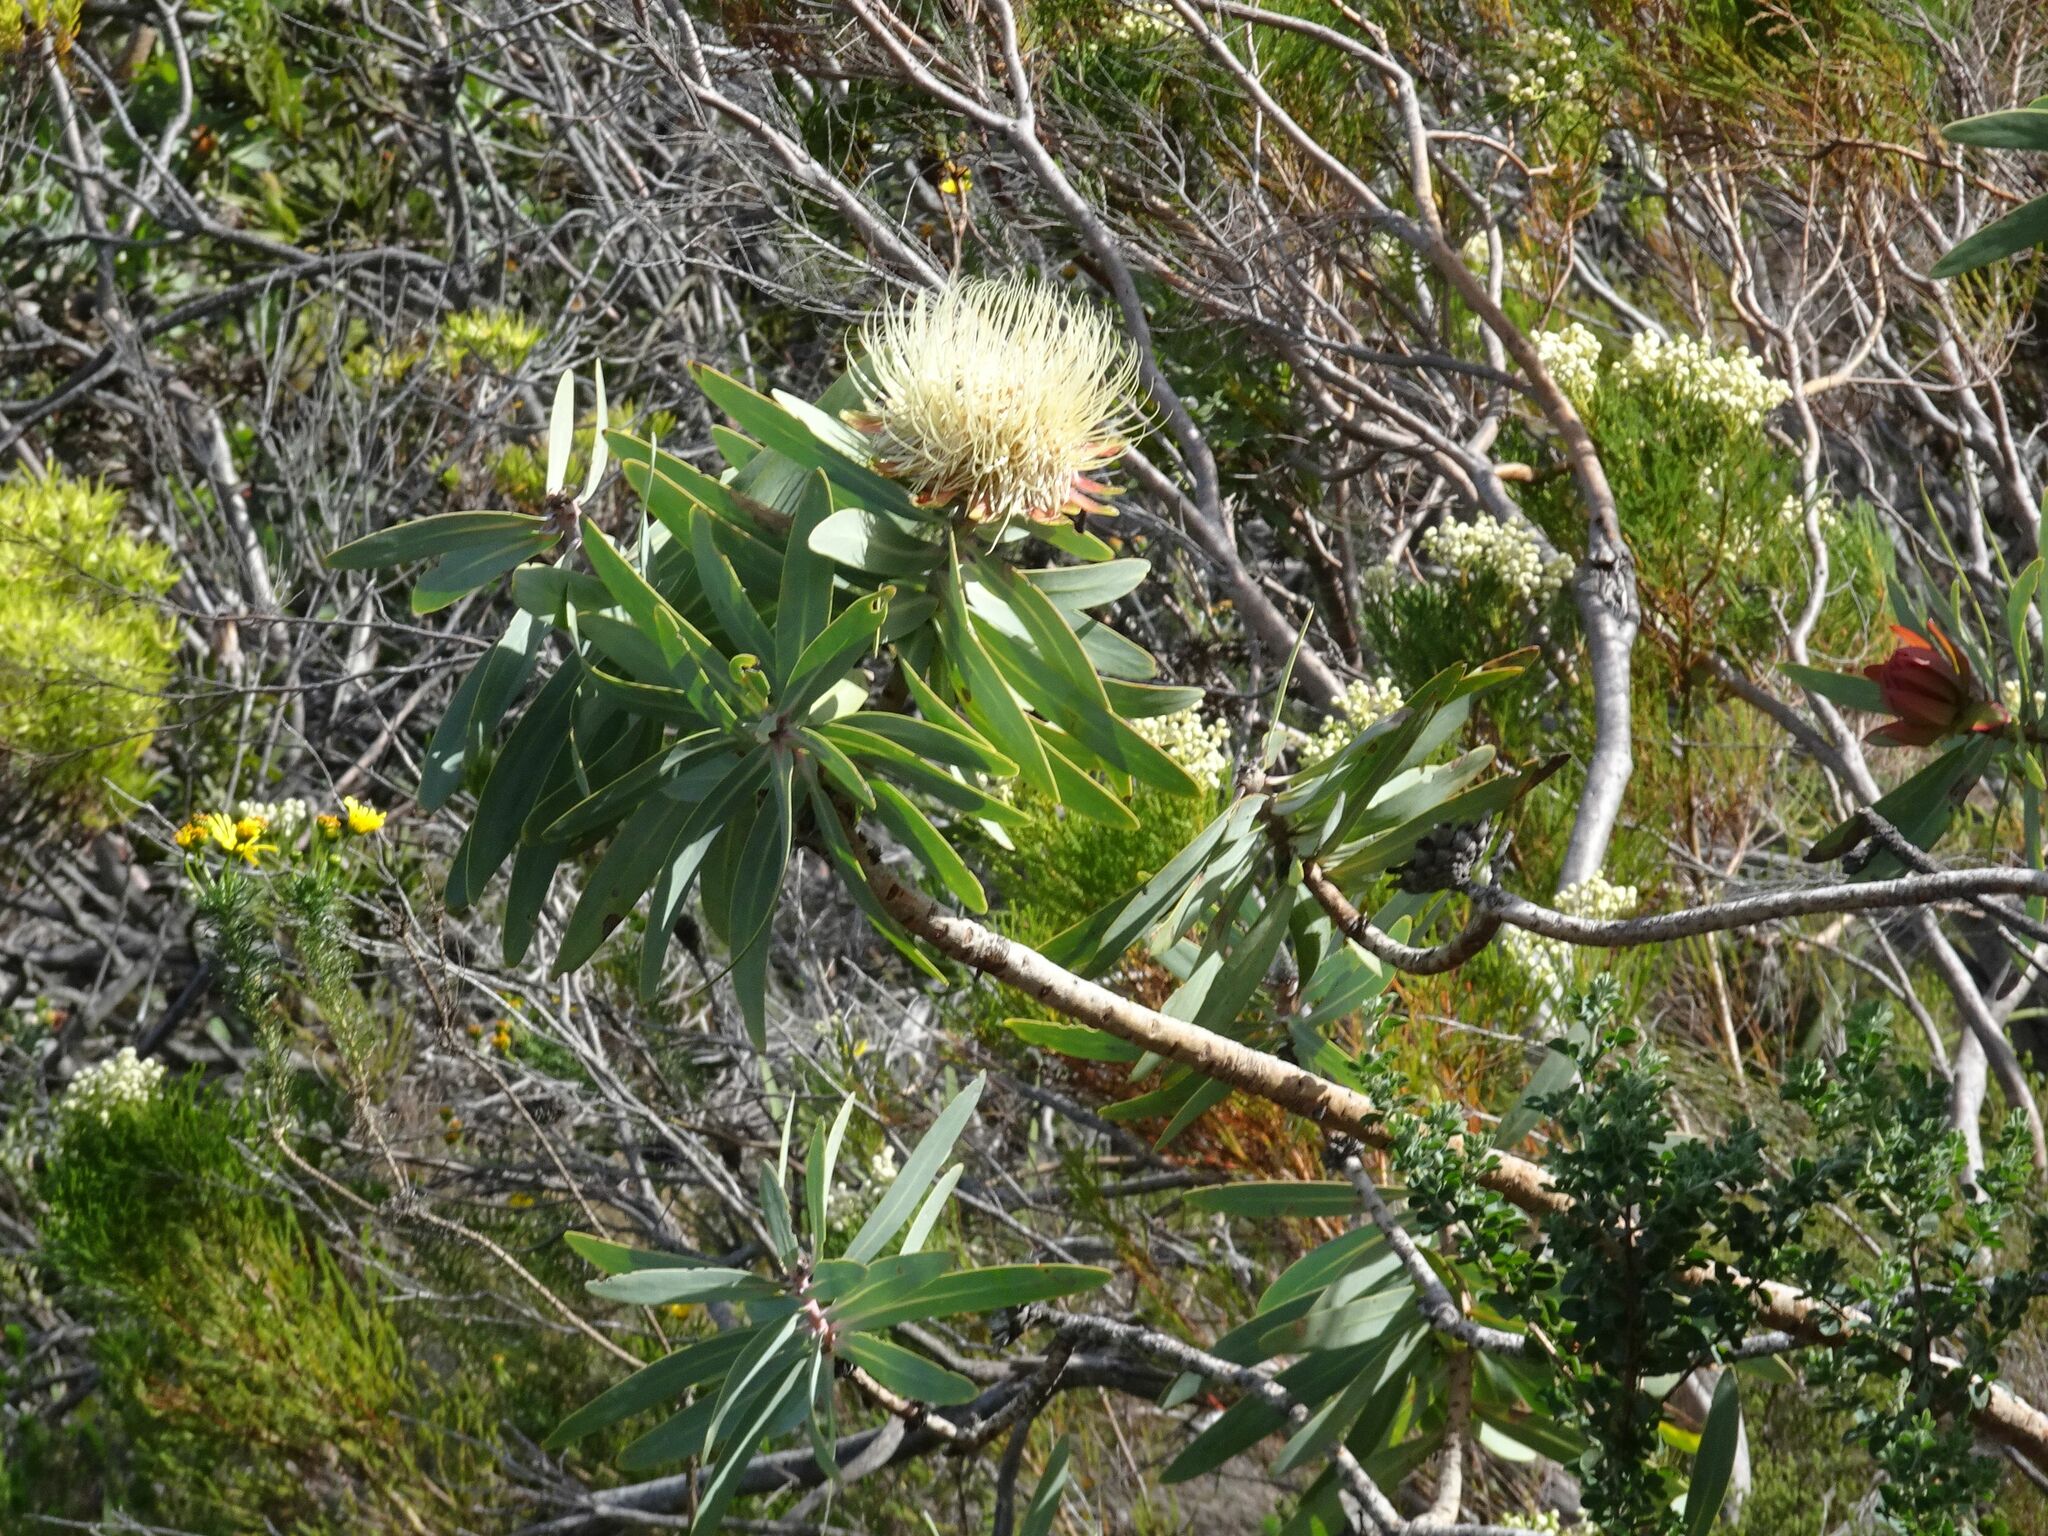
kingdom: Plantae
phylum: Tracheophyta
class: Magnoliopsida
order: Proteales
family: Proteaceae
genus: Protea
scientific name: Protea nitida
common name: Tree protea
